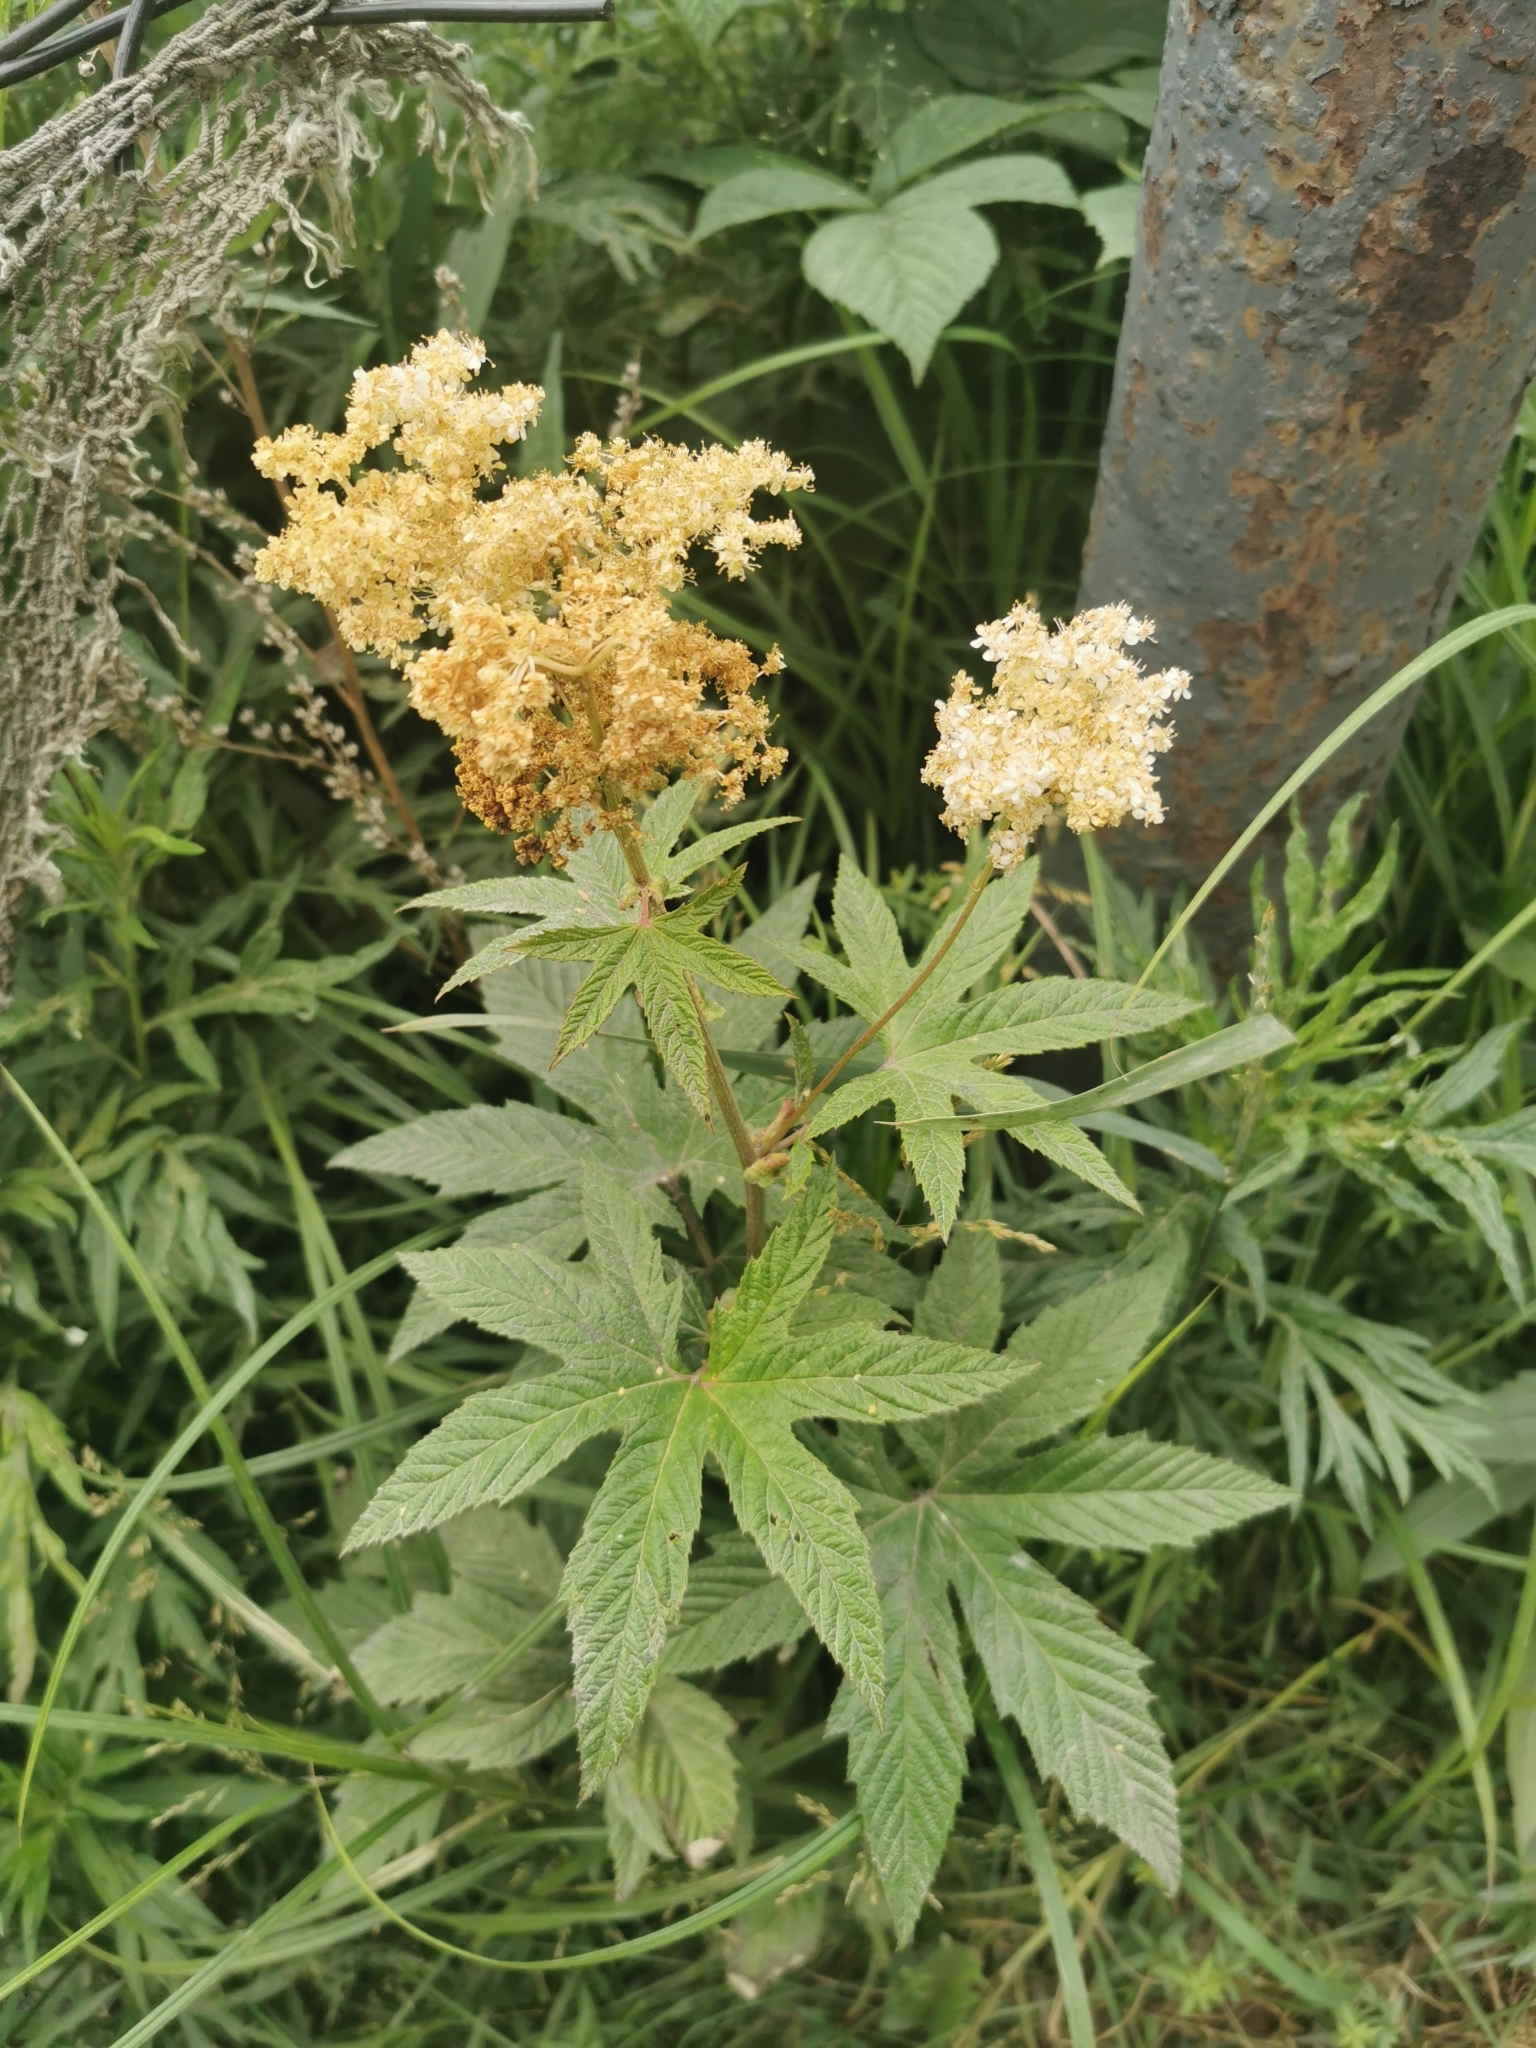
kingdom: Plantae
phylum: Tracheophyta
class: Magnoliopsida
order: Rosales
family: Rosaceae
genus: Filipendula
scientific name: Filipendula digitata
